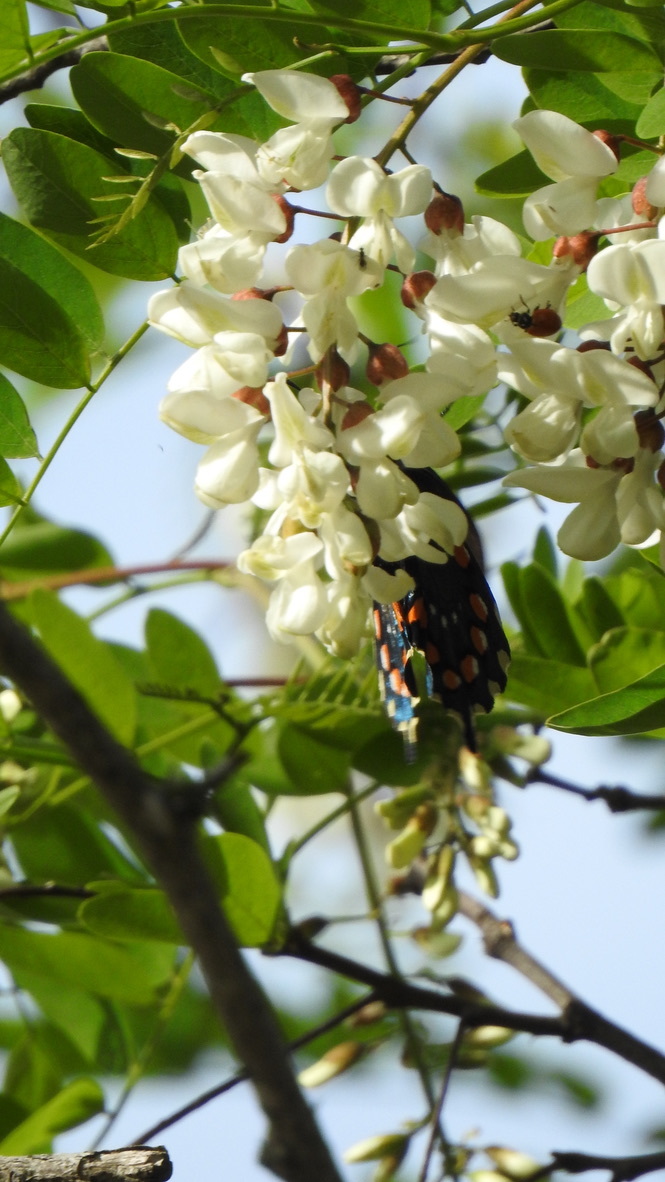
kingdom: Animalia
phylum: Arthropoda
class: Insecta
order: Lepidoptera
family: Papilionidae
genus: Battus
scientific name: Battus philenor
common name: Pipevine swallowtail
